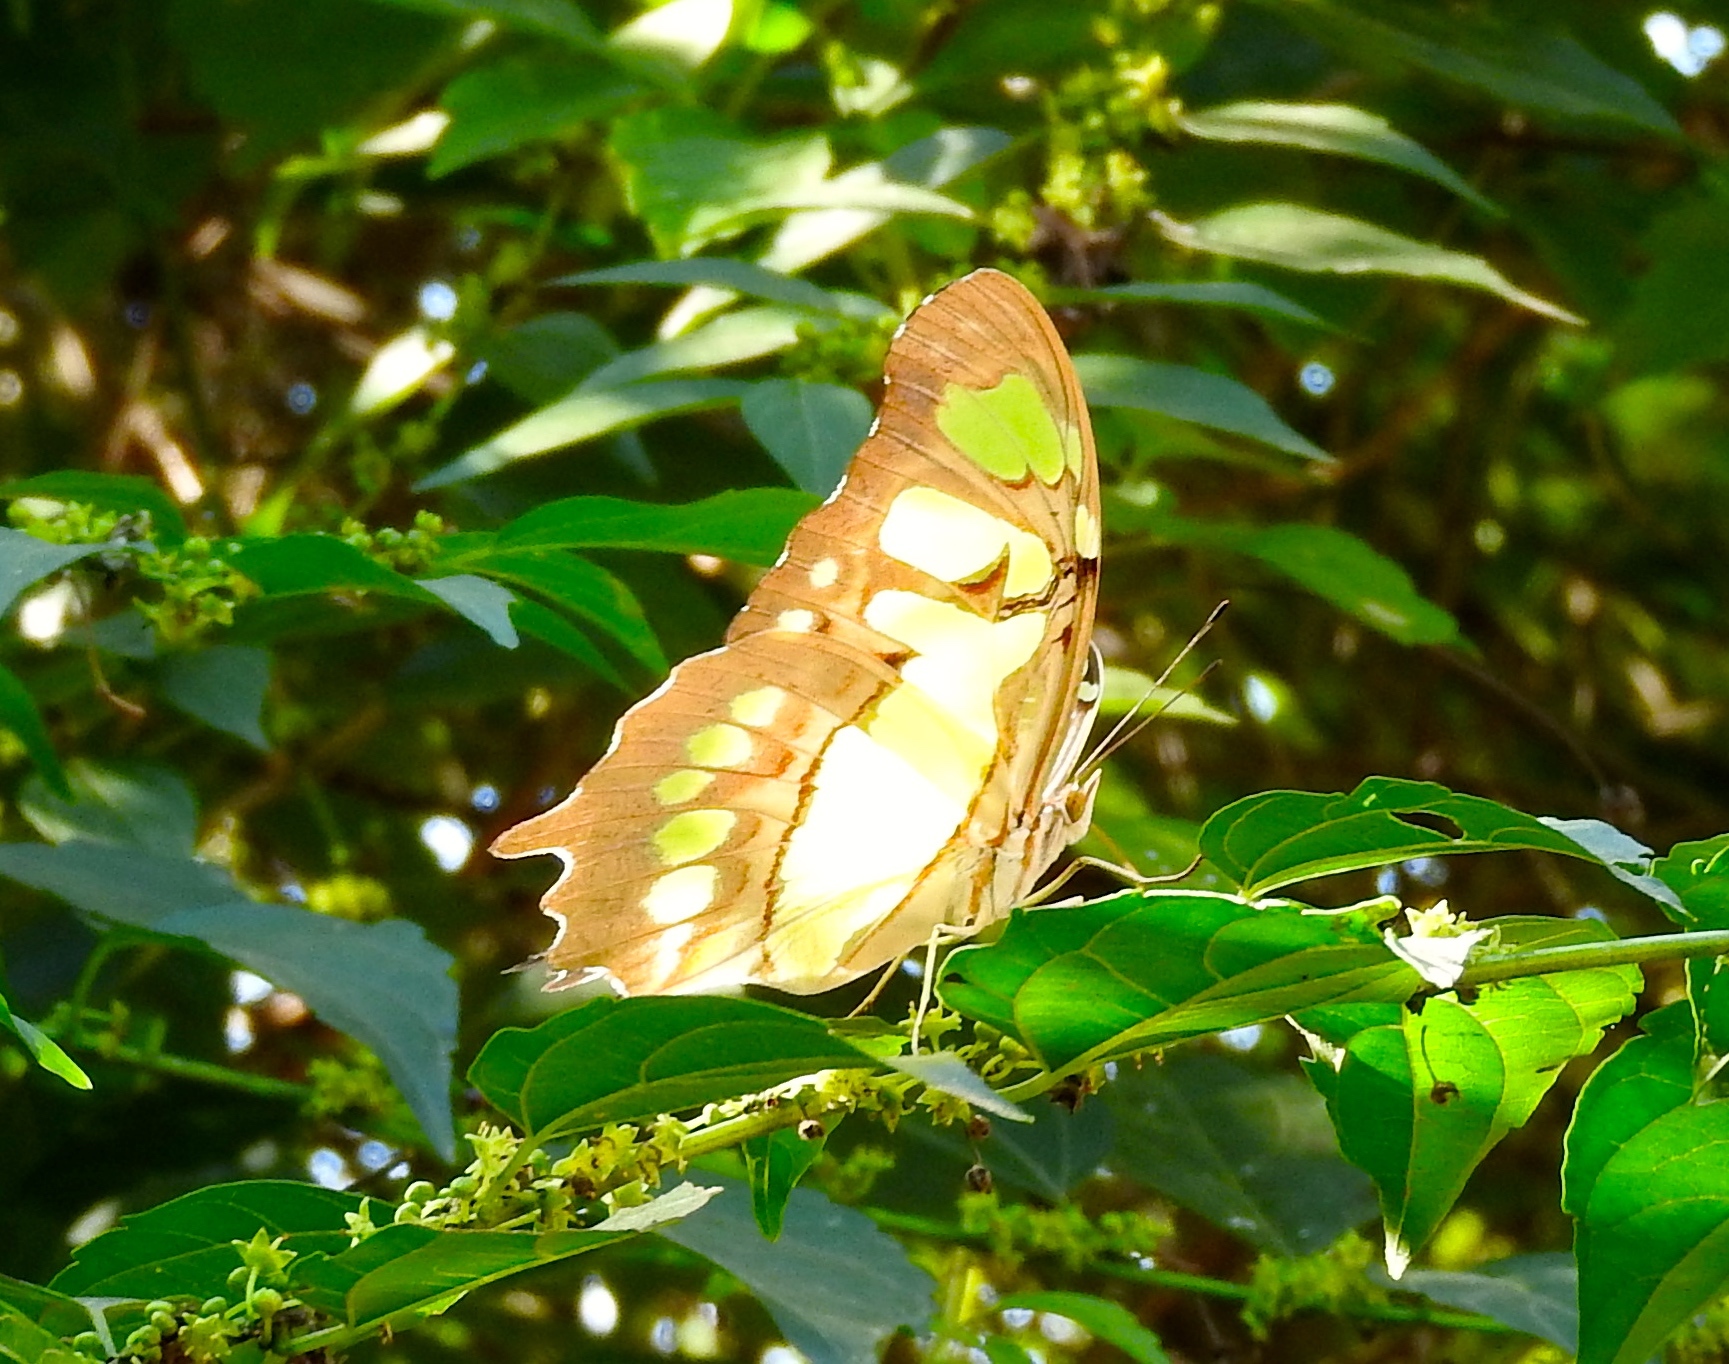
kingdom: Animalia
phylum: Arthropoda
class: Insecta
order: Lepidoptera
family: Nymphalidae
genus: Siproeta
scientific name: Siproeta stelenes
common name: Malachite
